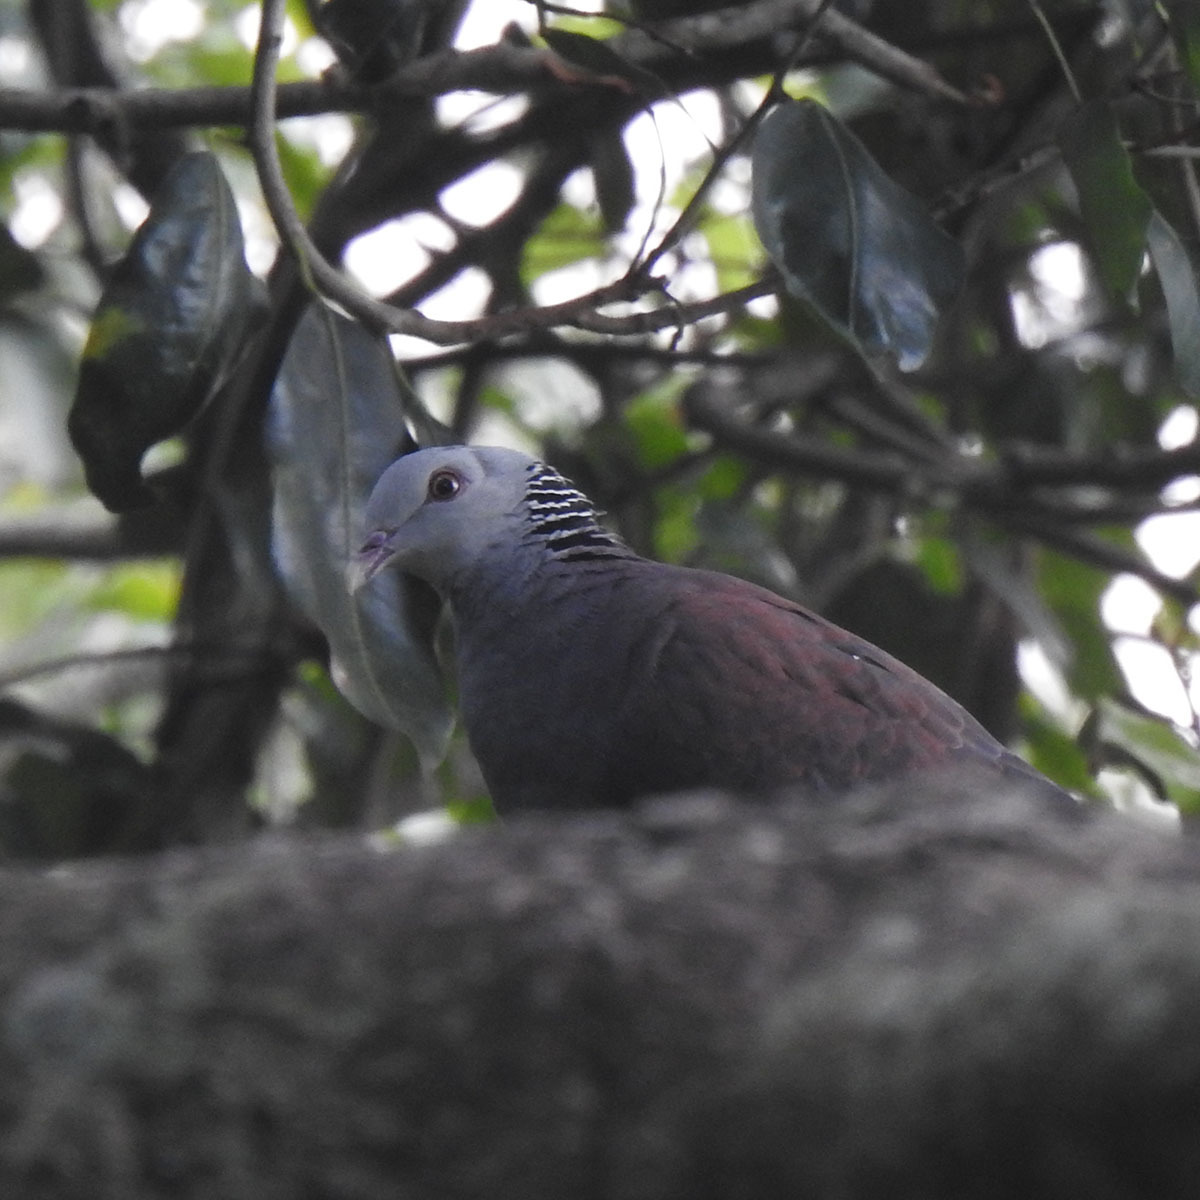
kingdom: Animalia
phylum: Chordata
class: Aves
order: Columbiformes
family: Columbidae
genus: Columba
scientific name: Columba elphinstonii
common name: Nilgiri wood pigeon
